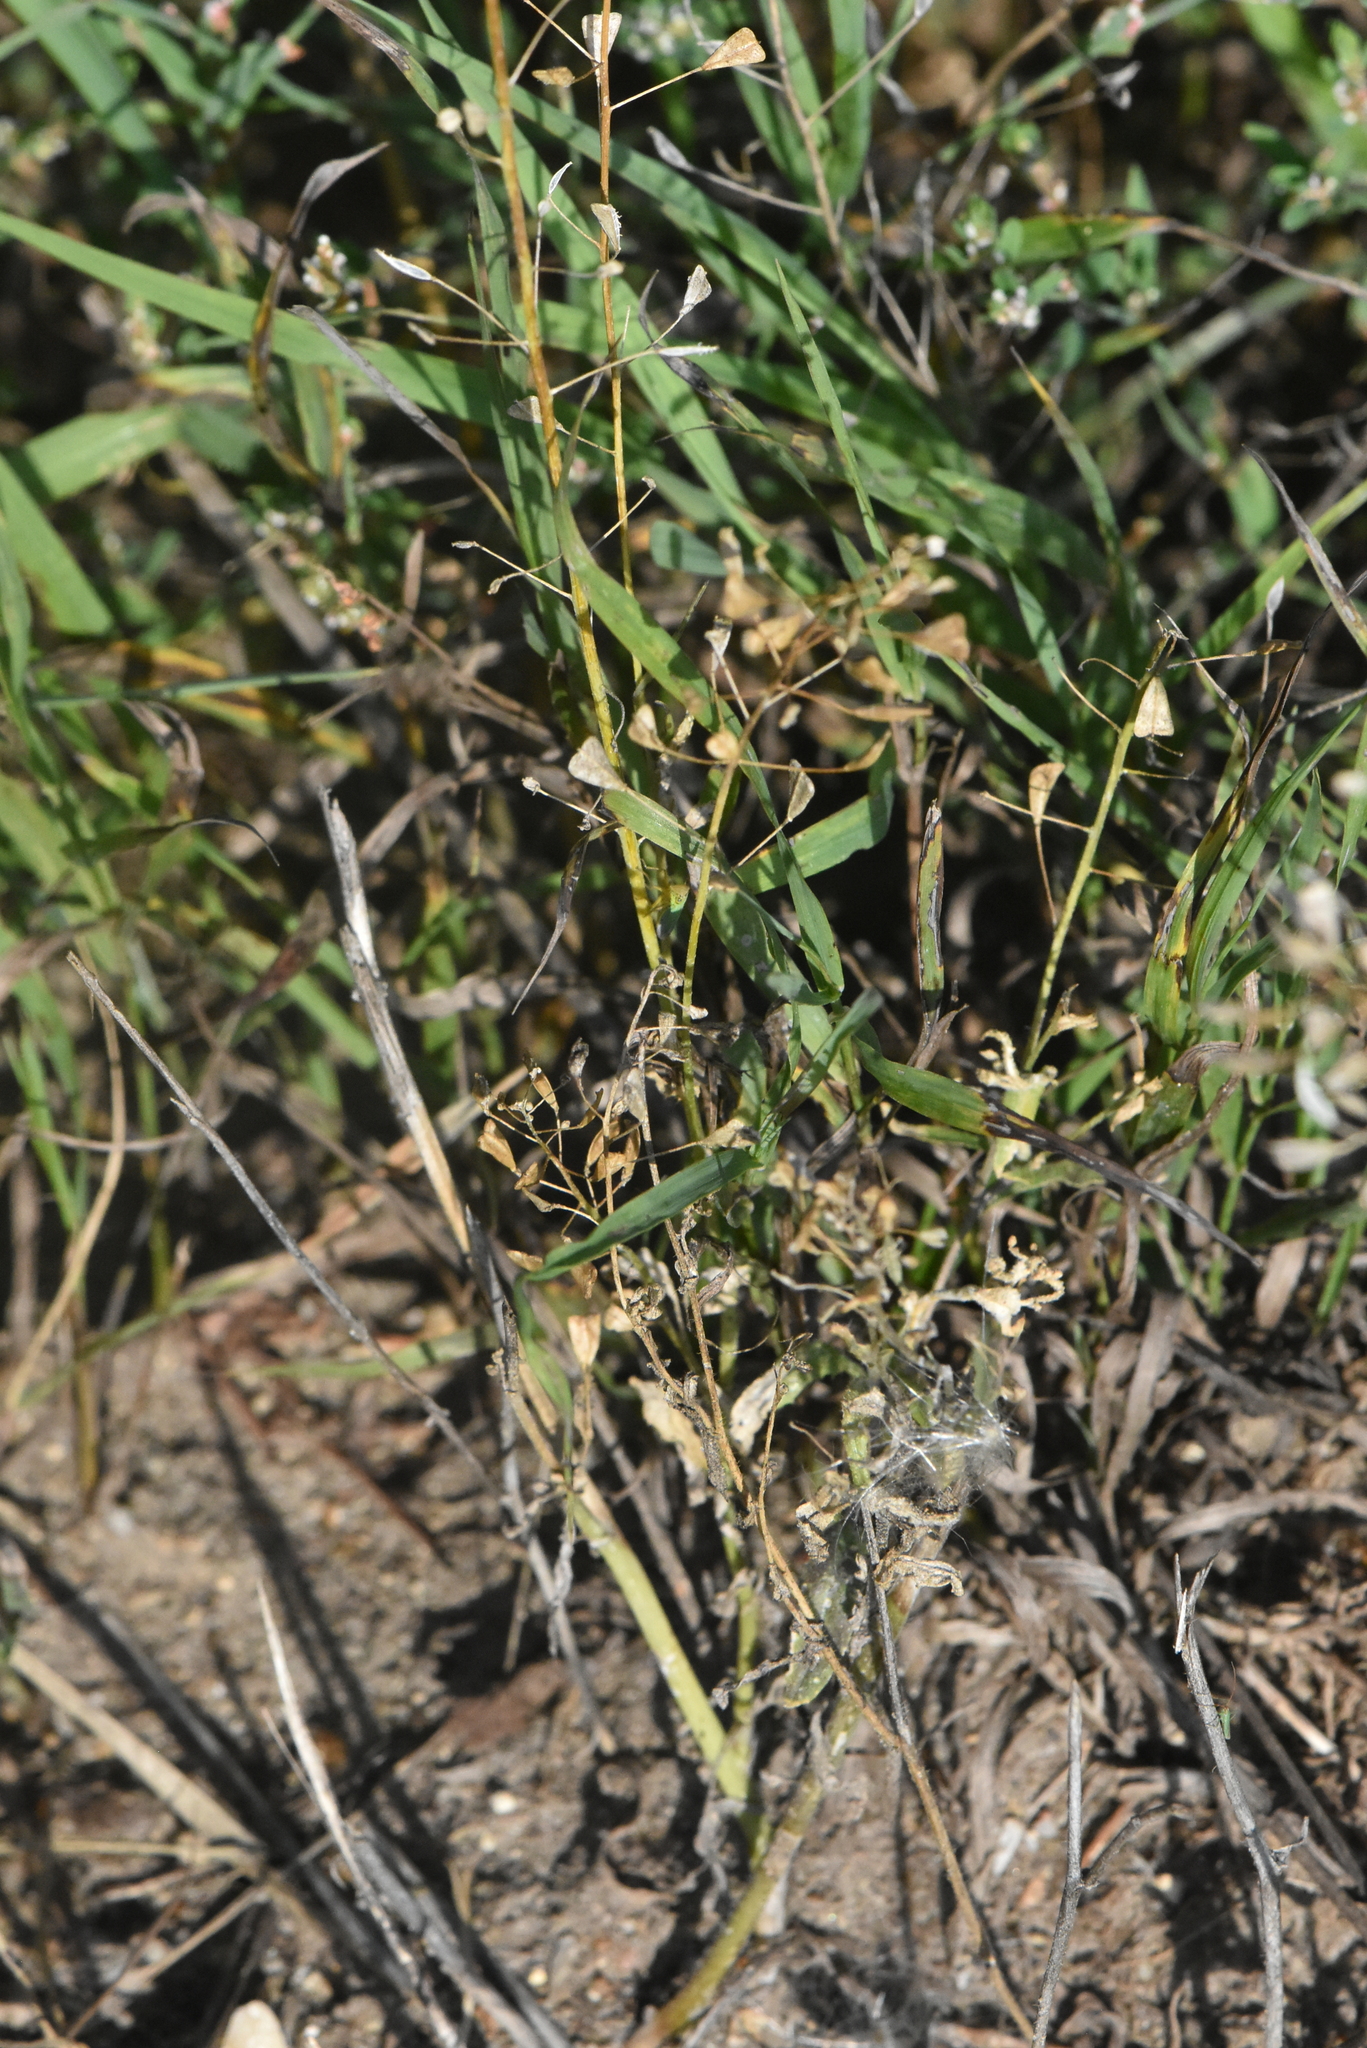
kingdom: Plantae
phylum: Tracheophyta
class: Magnoliopsida
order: Brassicales
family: Brassicaceae
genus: Capsella
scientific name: Capsella bursa-pastoris
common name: Shepherd's purse
